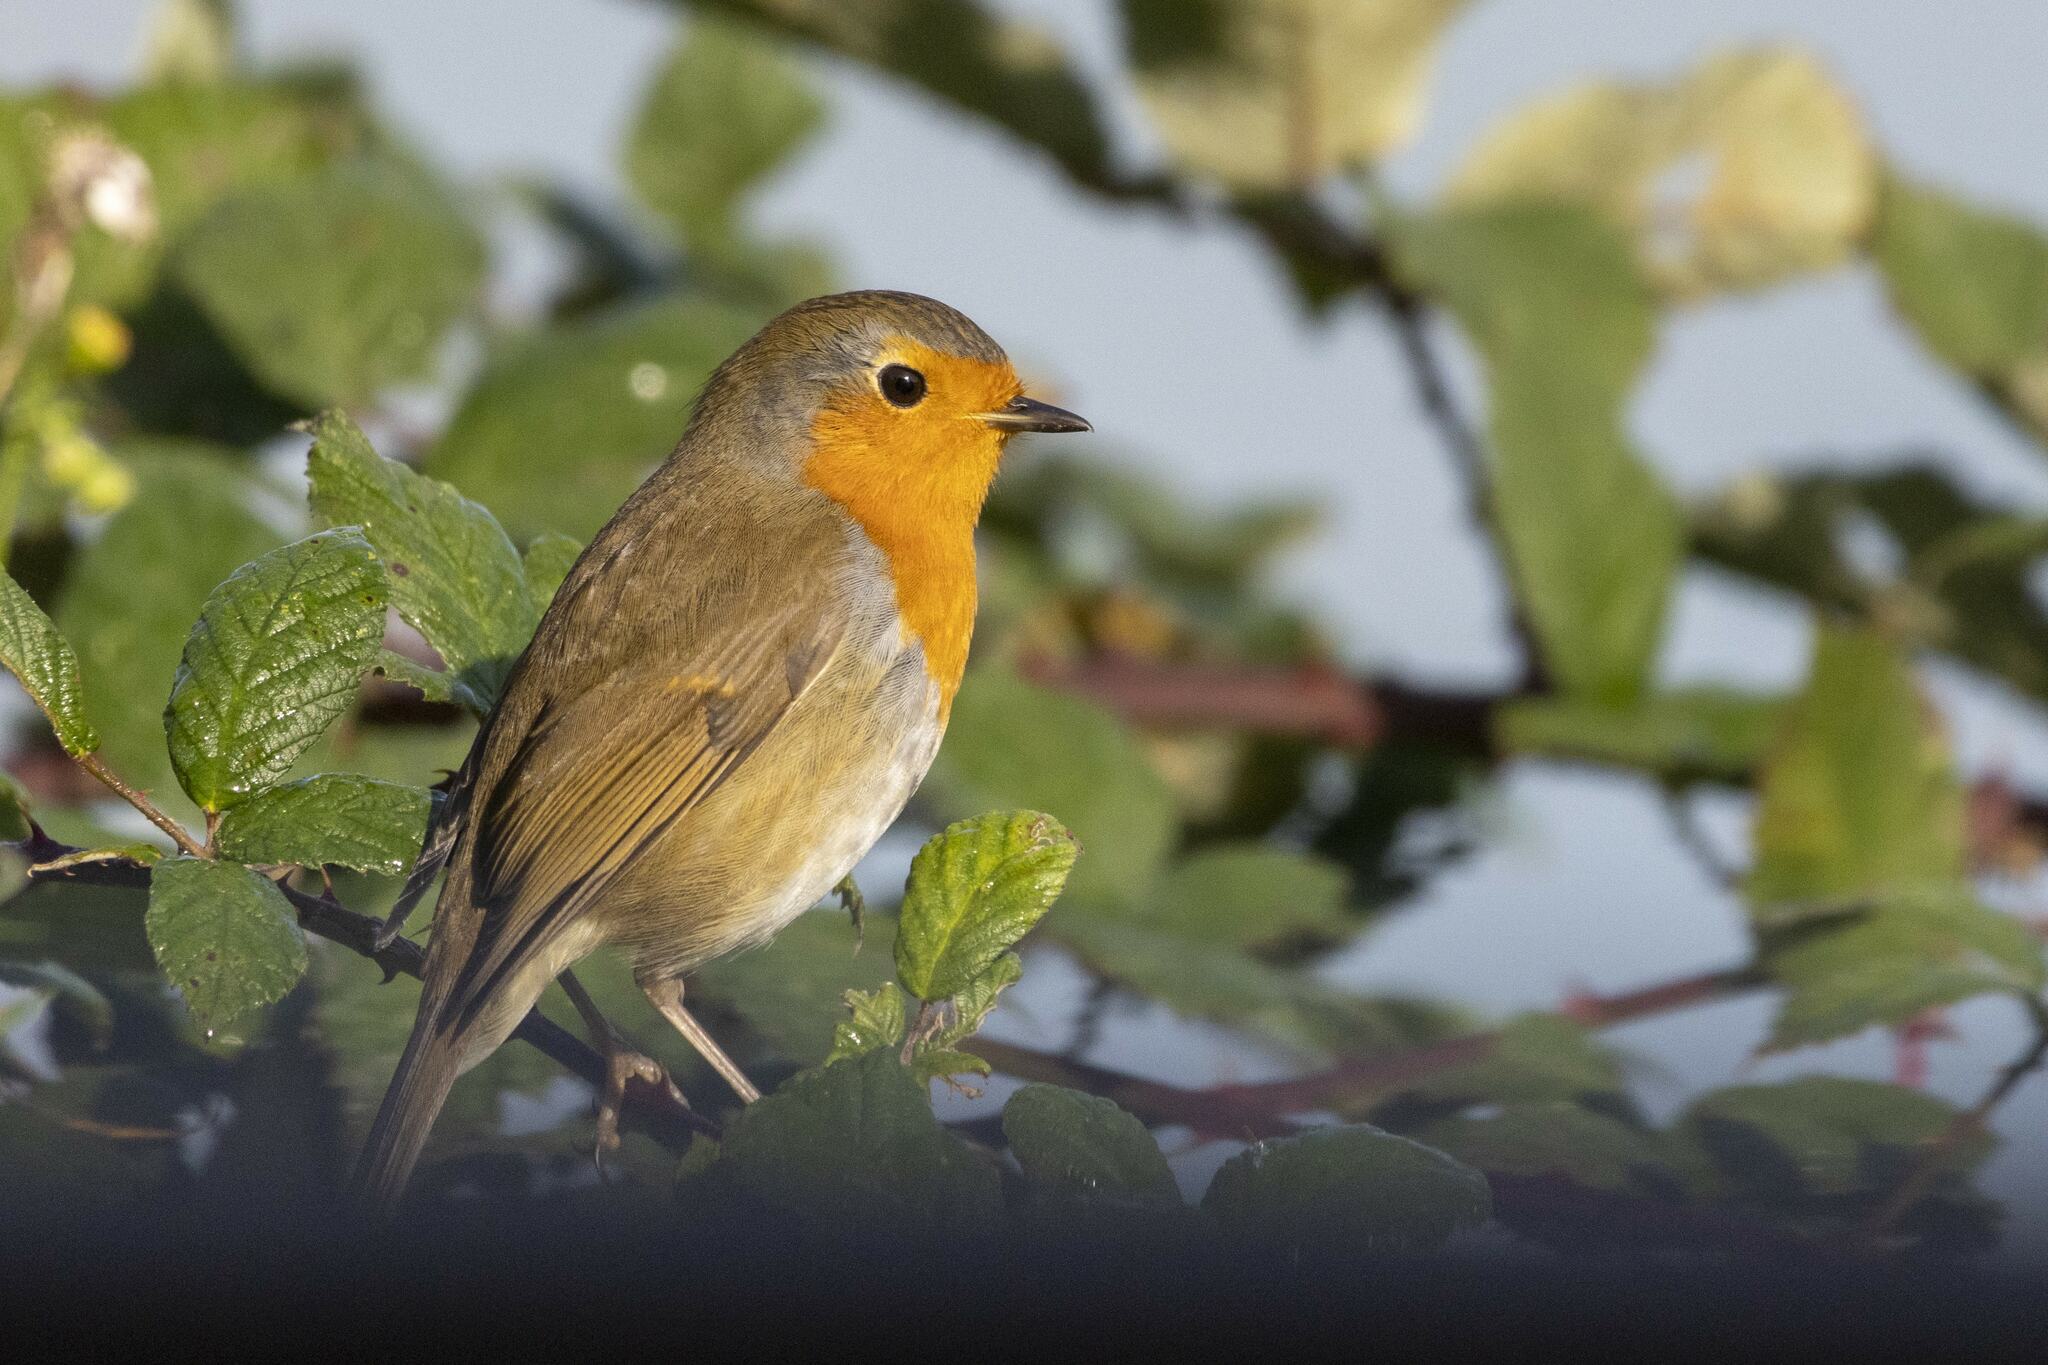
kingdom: Animalia
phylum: Chordata
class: Aves
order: Passeriformes
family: Muscicapidae
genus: Erithacus
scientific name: Erithacus rubecula
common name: European robin
